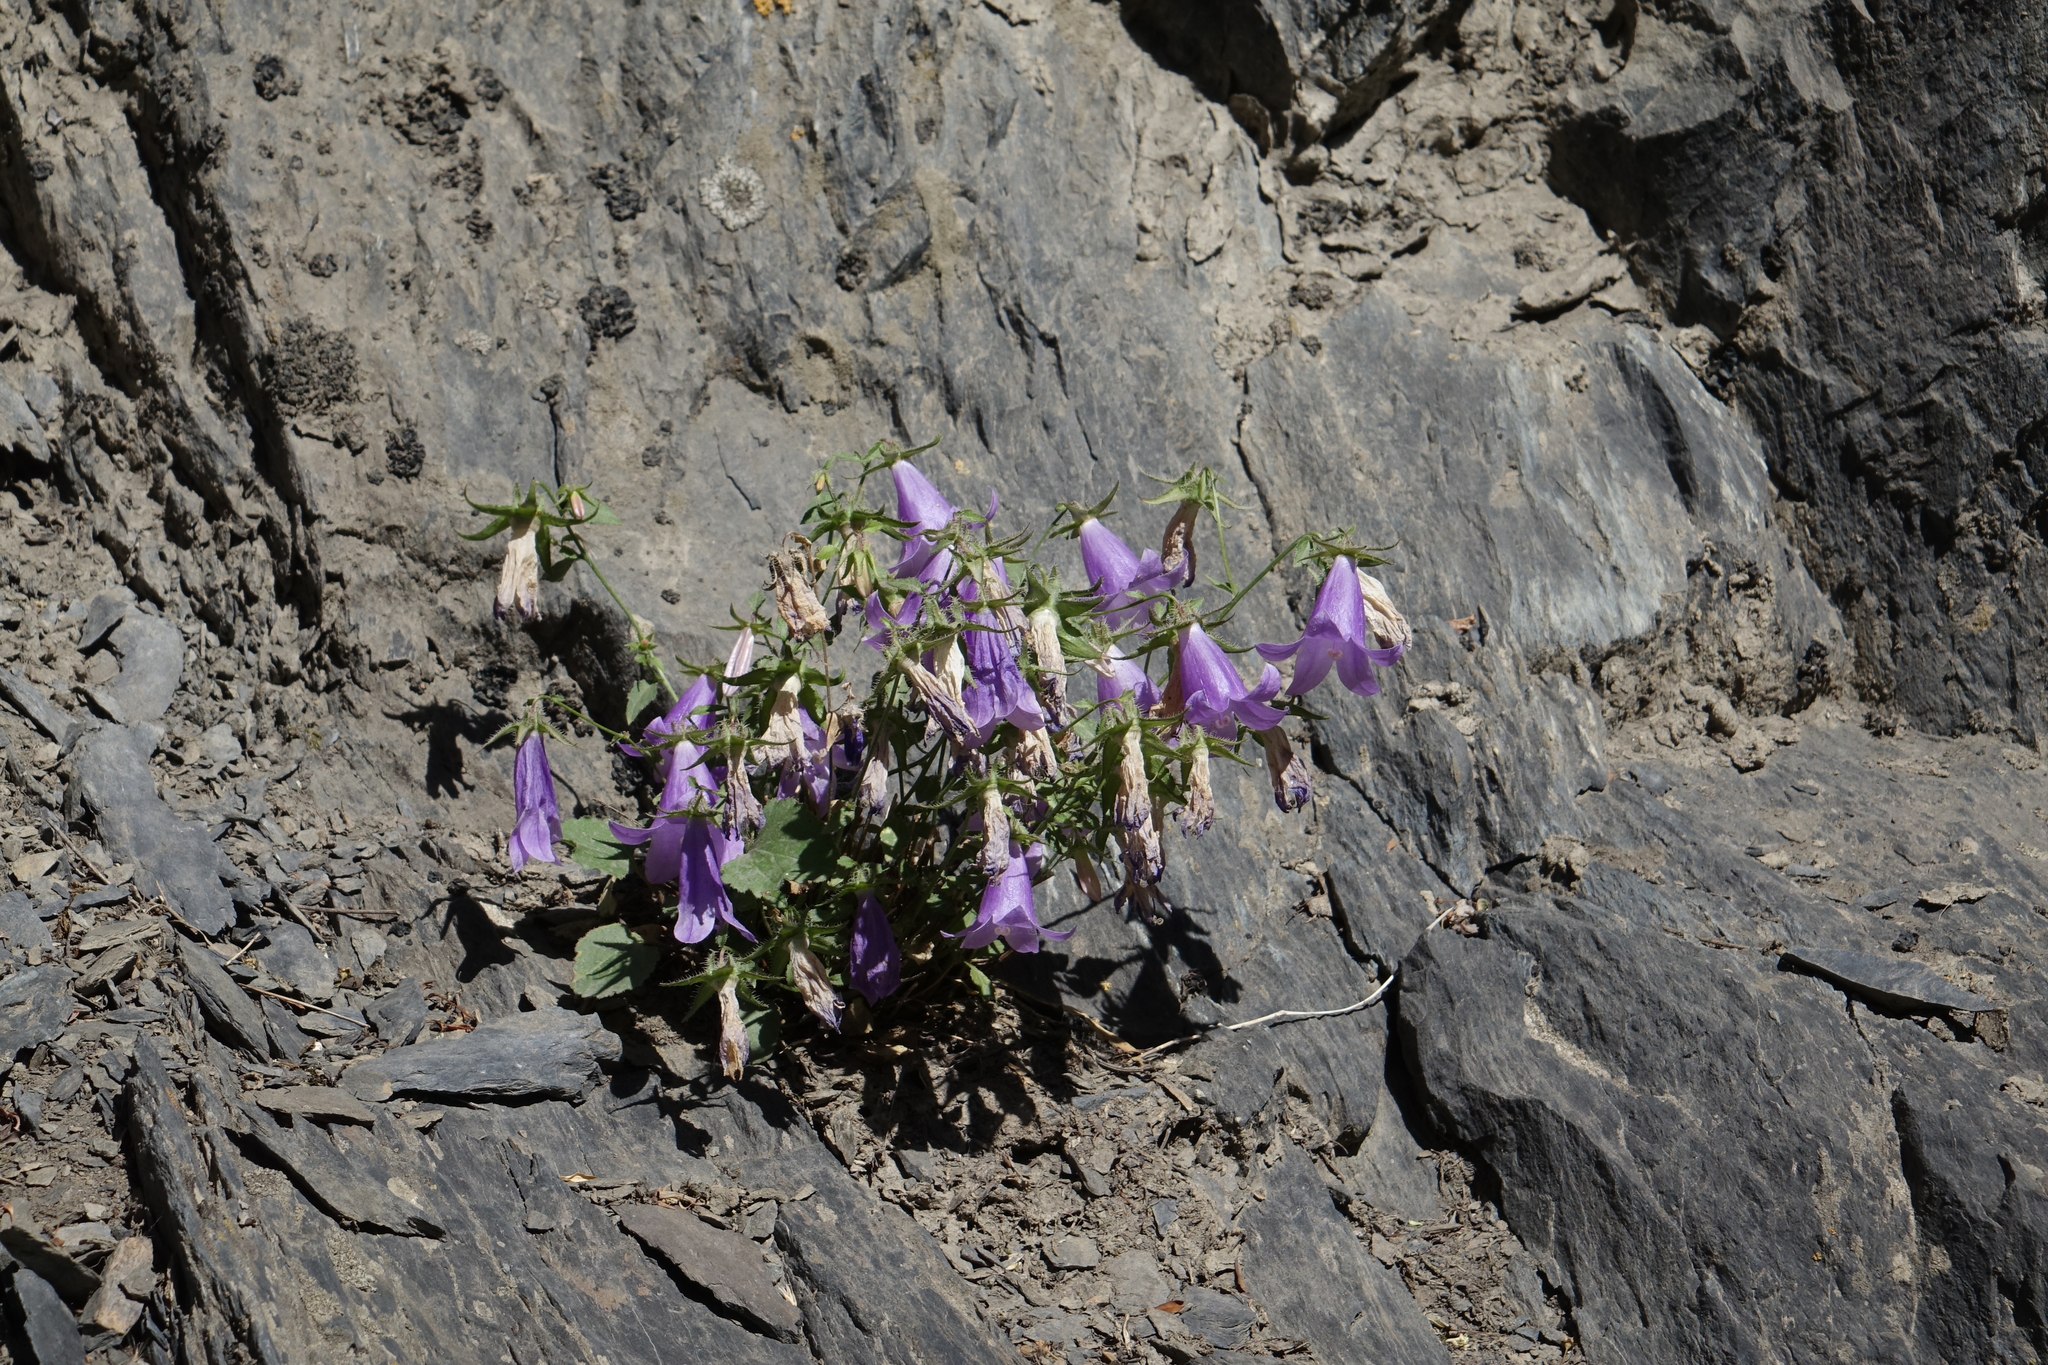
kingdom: Plantae
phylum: Tracheophyta
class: Magnoliopsida
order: Asterales
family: Campanulaceae
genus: Campanula
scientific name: Campanula kolenatiana
